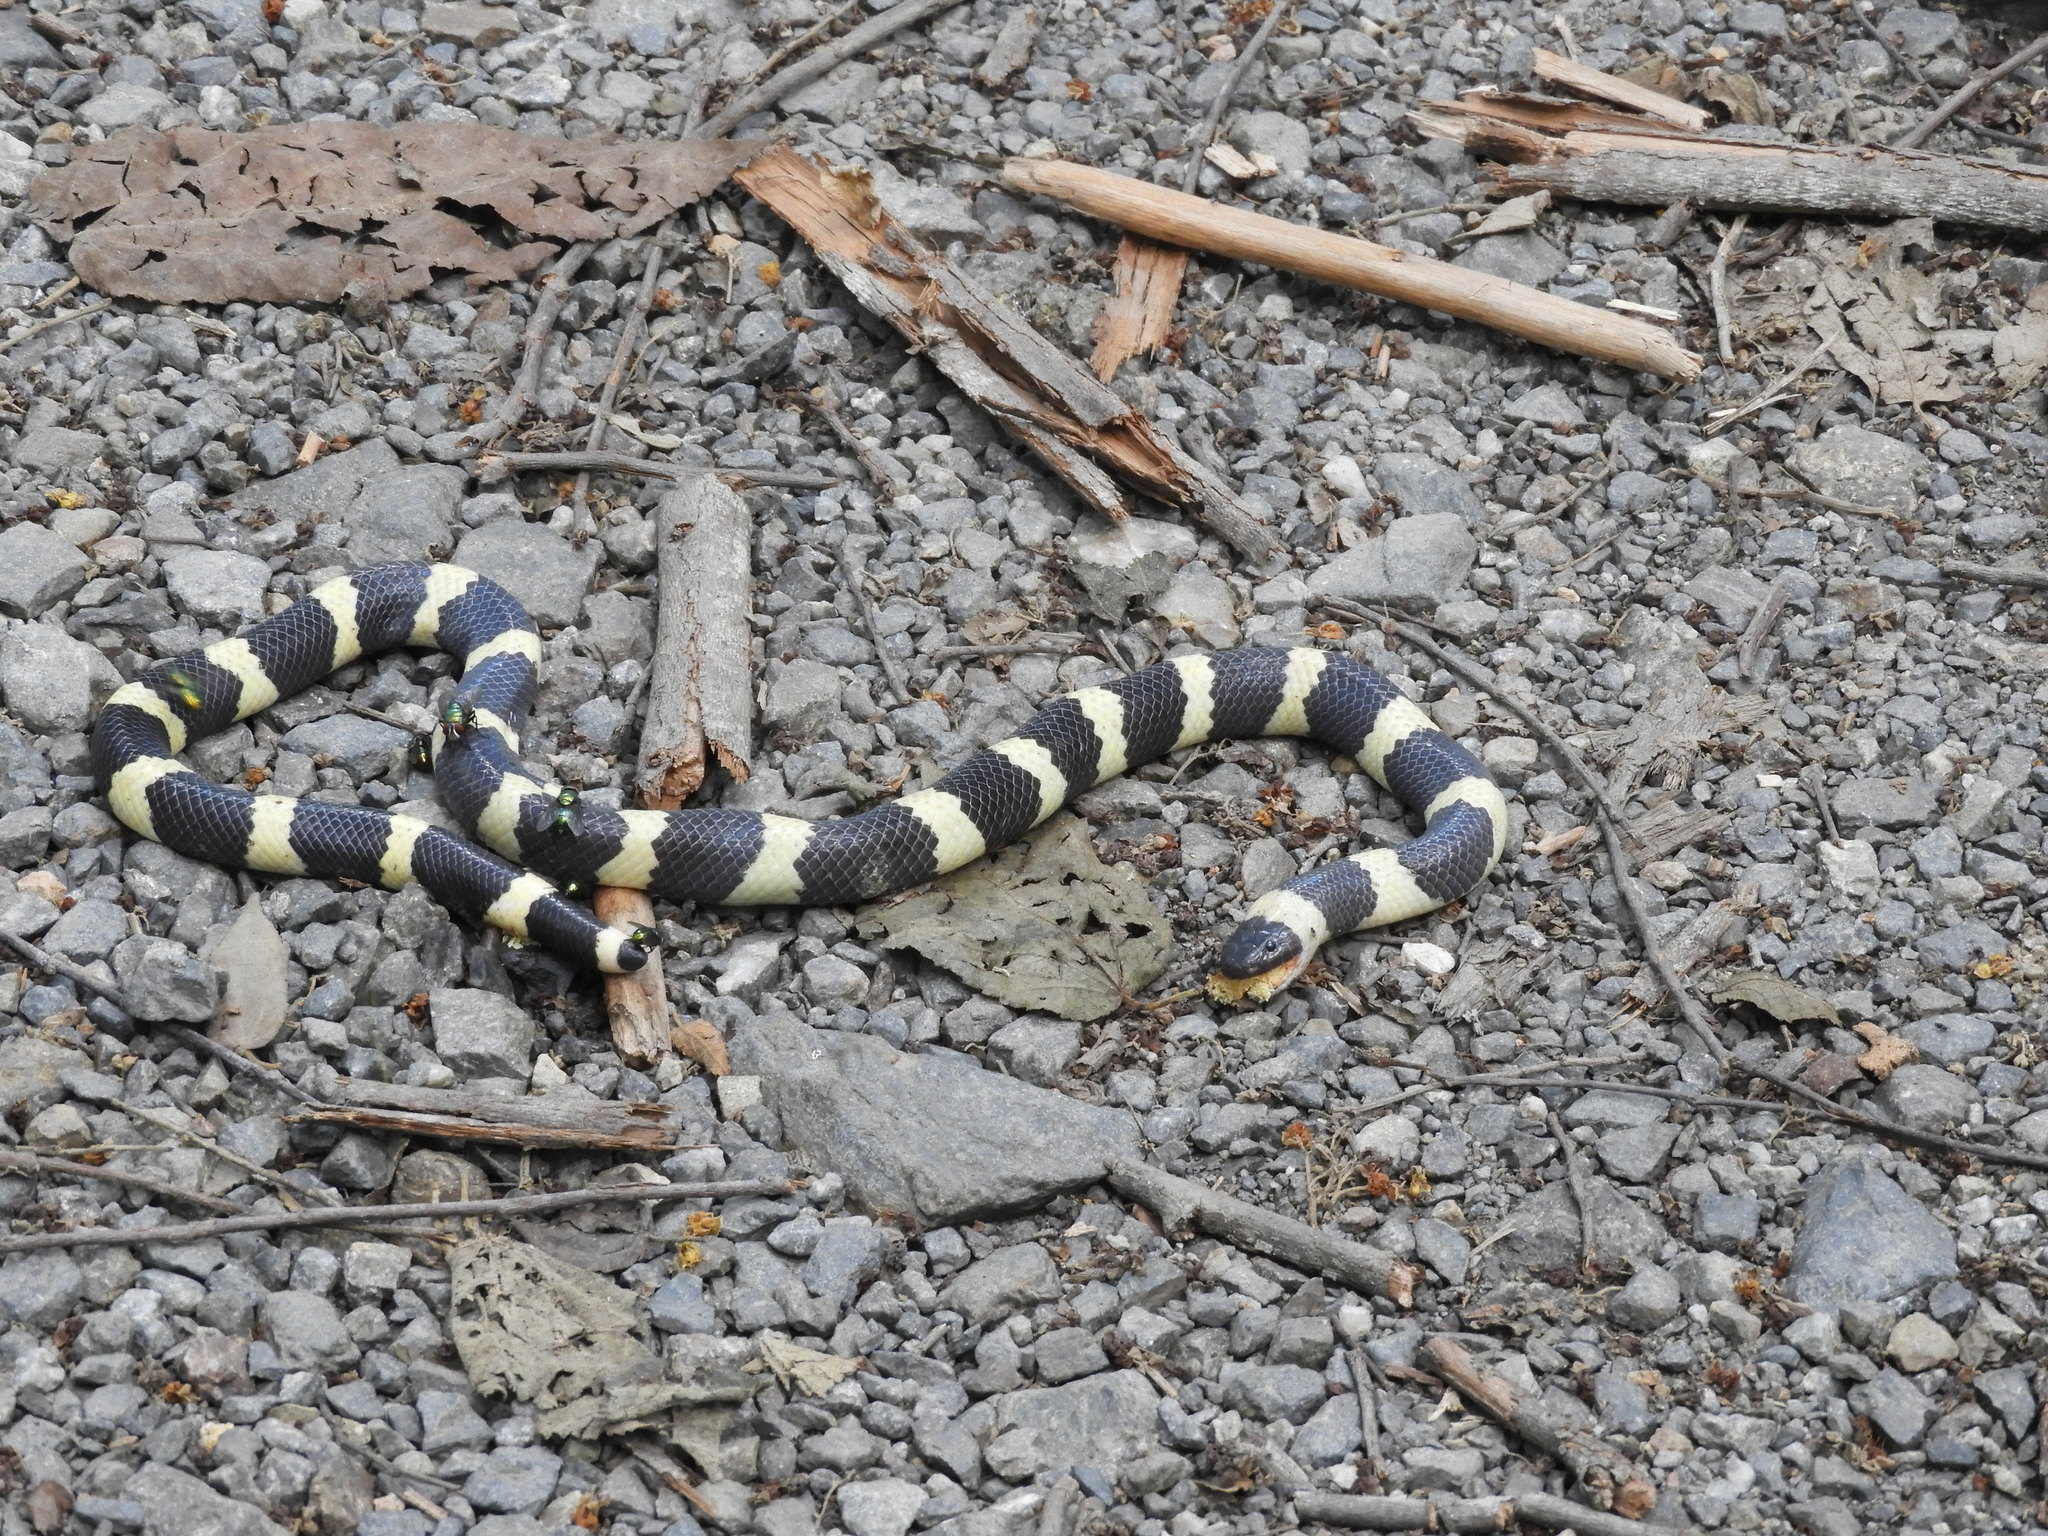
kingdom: Animalia
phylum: Chordata
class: Squamata
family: Colubridae
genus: Sympholis
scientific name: Sympholis lippiens
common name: Mexican short-tail snake
